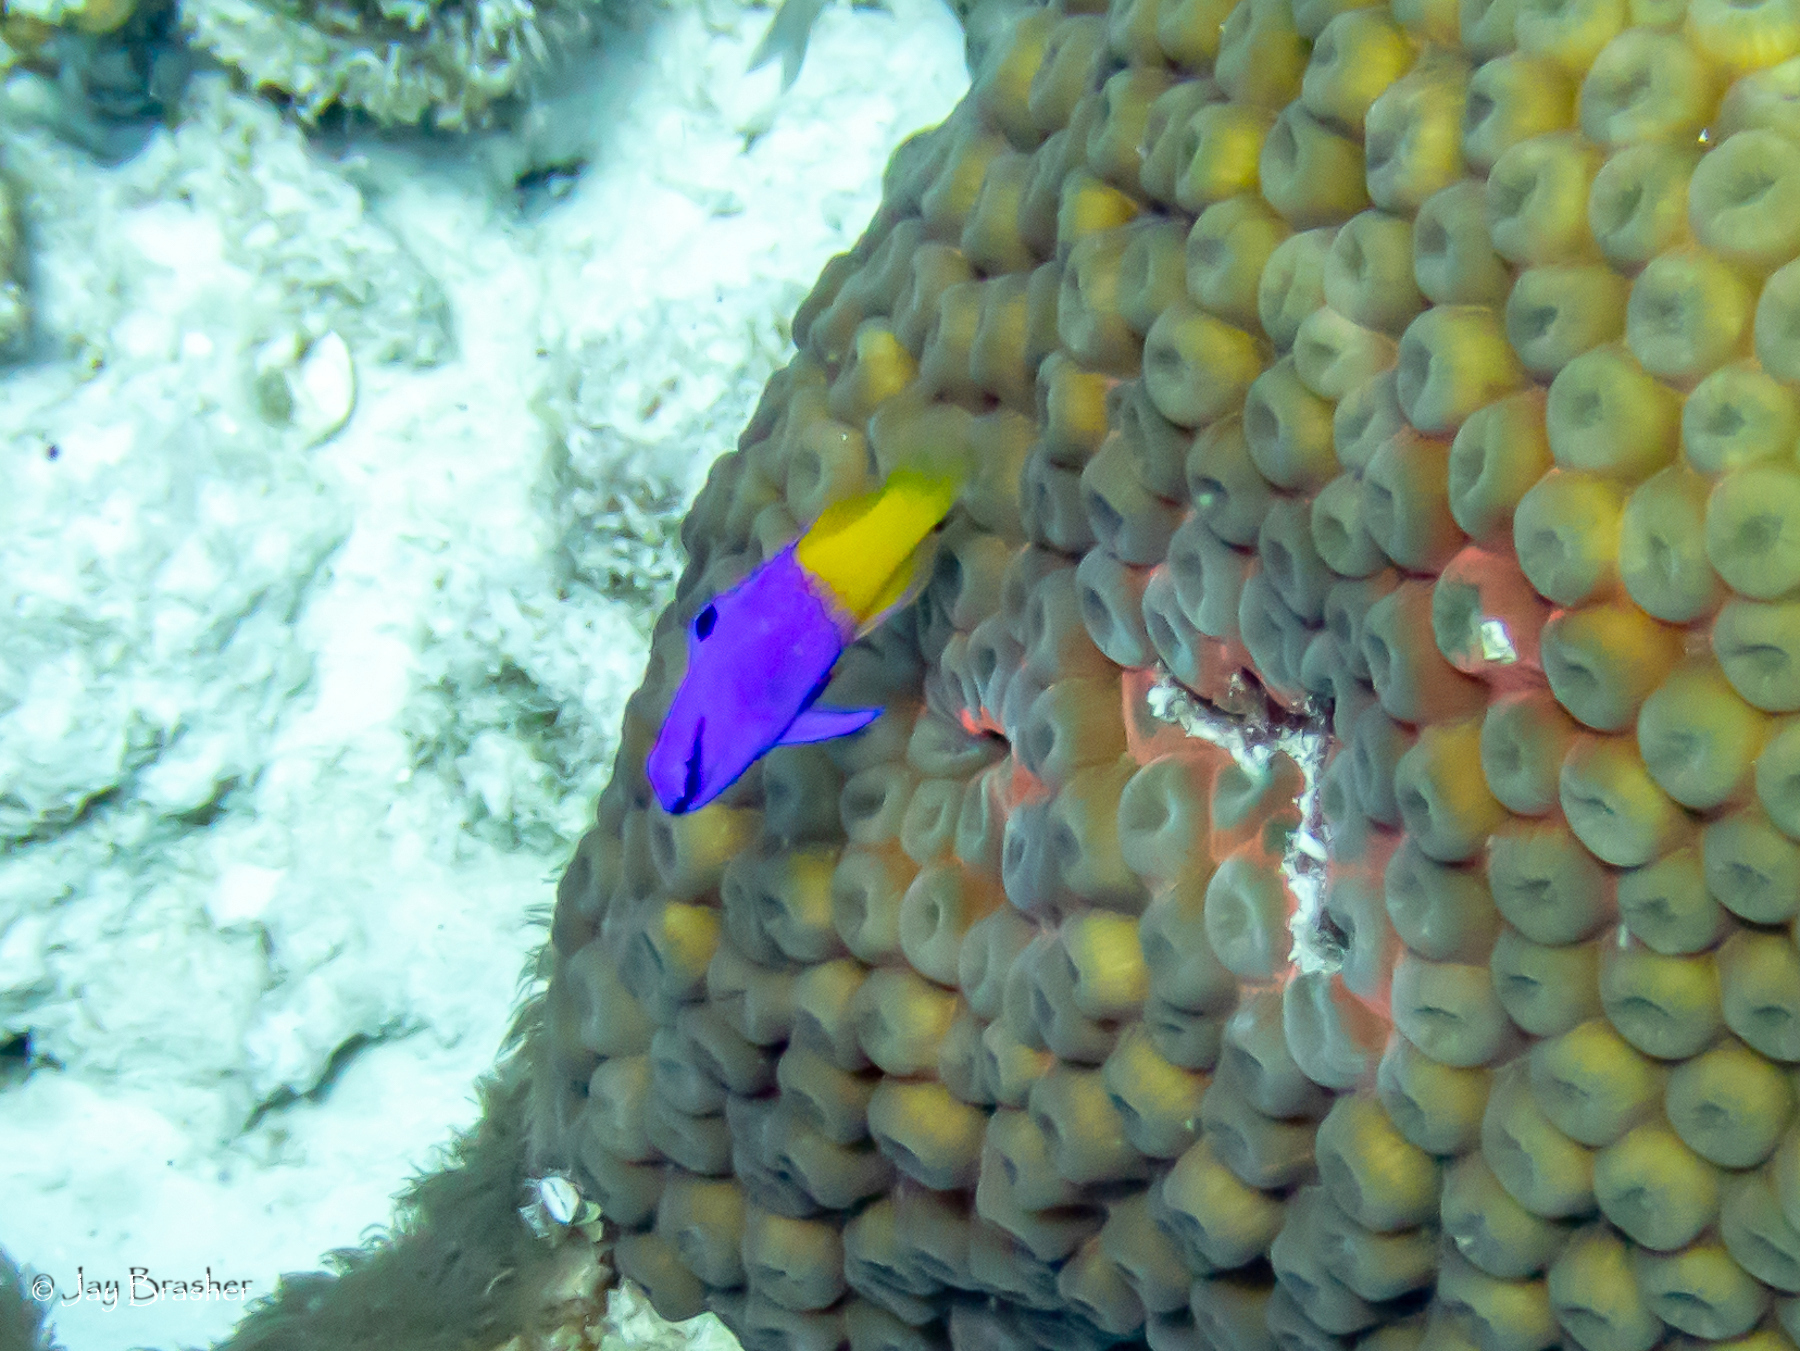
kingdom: Animalia
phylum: Chordata
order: Perciformes
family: Grammatidae
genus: Gramma
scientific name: Gramma loreto
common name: Fairy basslet
